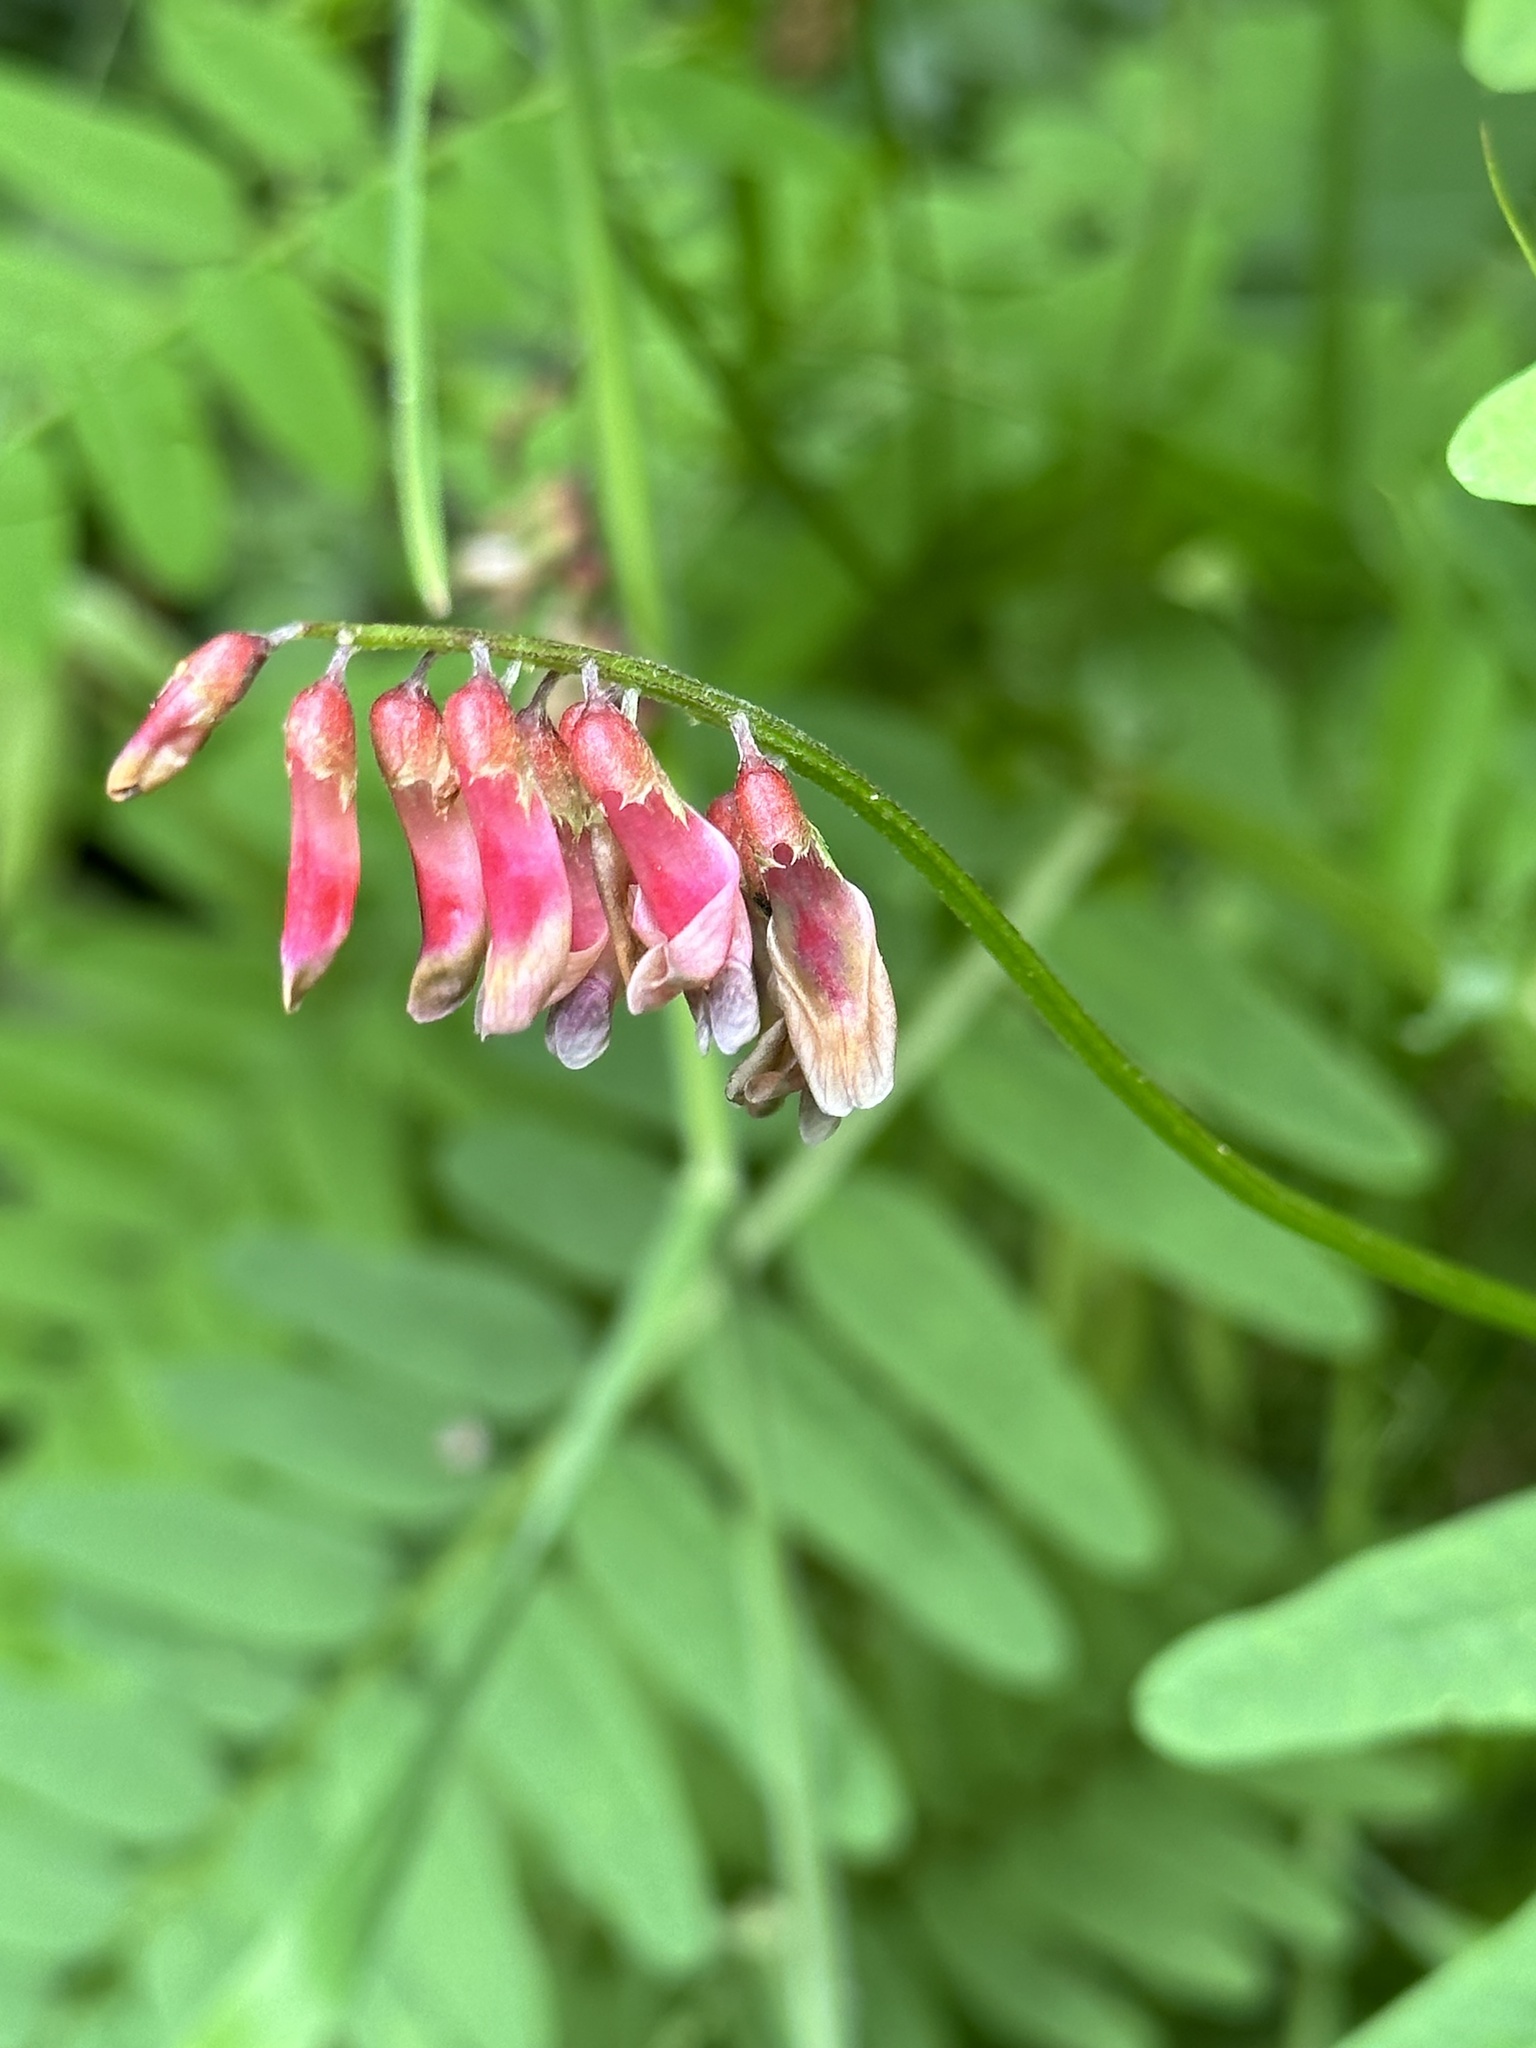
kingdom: Plantae
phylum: Tracheophyta
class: Magnoliopsida
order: Fabales
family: Fabaceae
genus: Vicia
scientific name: Vicia
